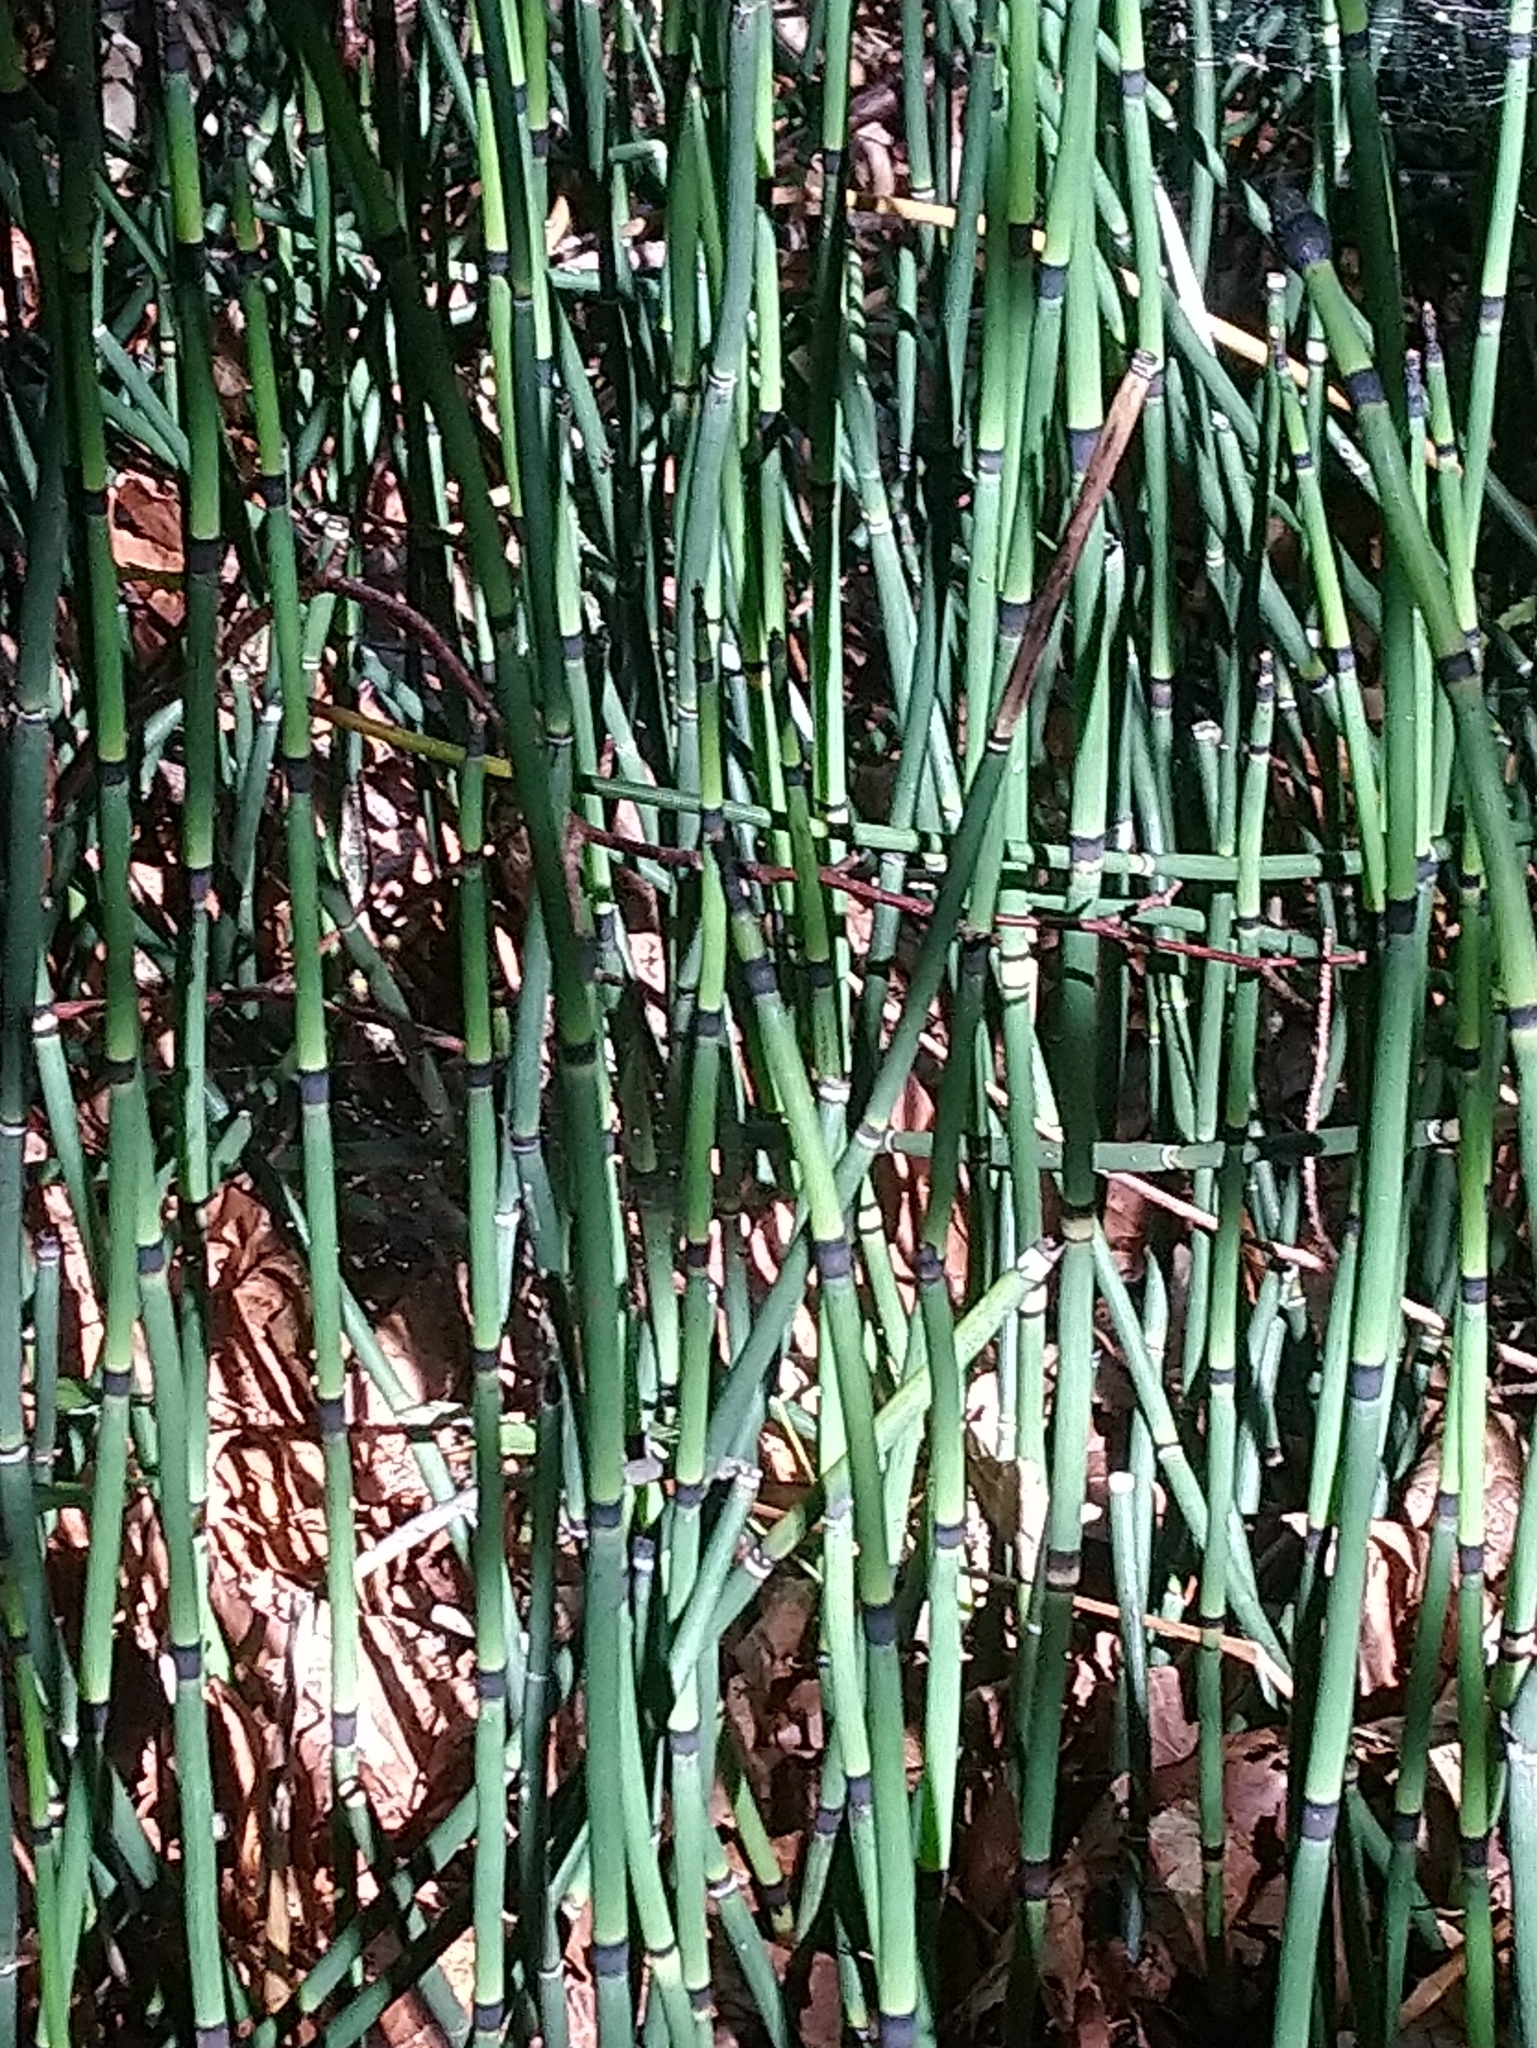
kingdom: Plantae
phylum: Tracheophyta
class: Polypodiopsida
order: Equisetales
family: Equisetaceae
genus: Equisetum
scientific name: Equisetum hyemale
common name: Rough horsetail
